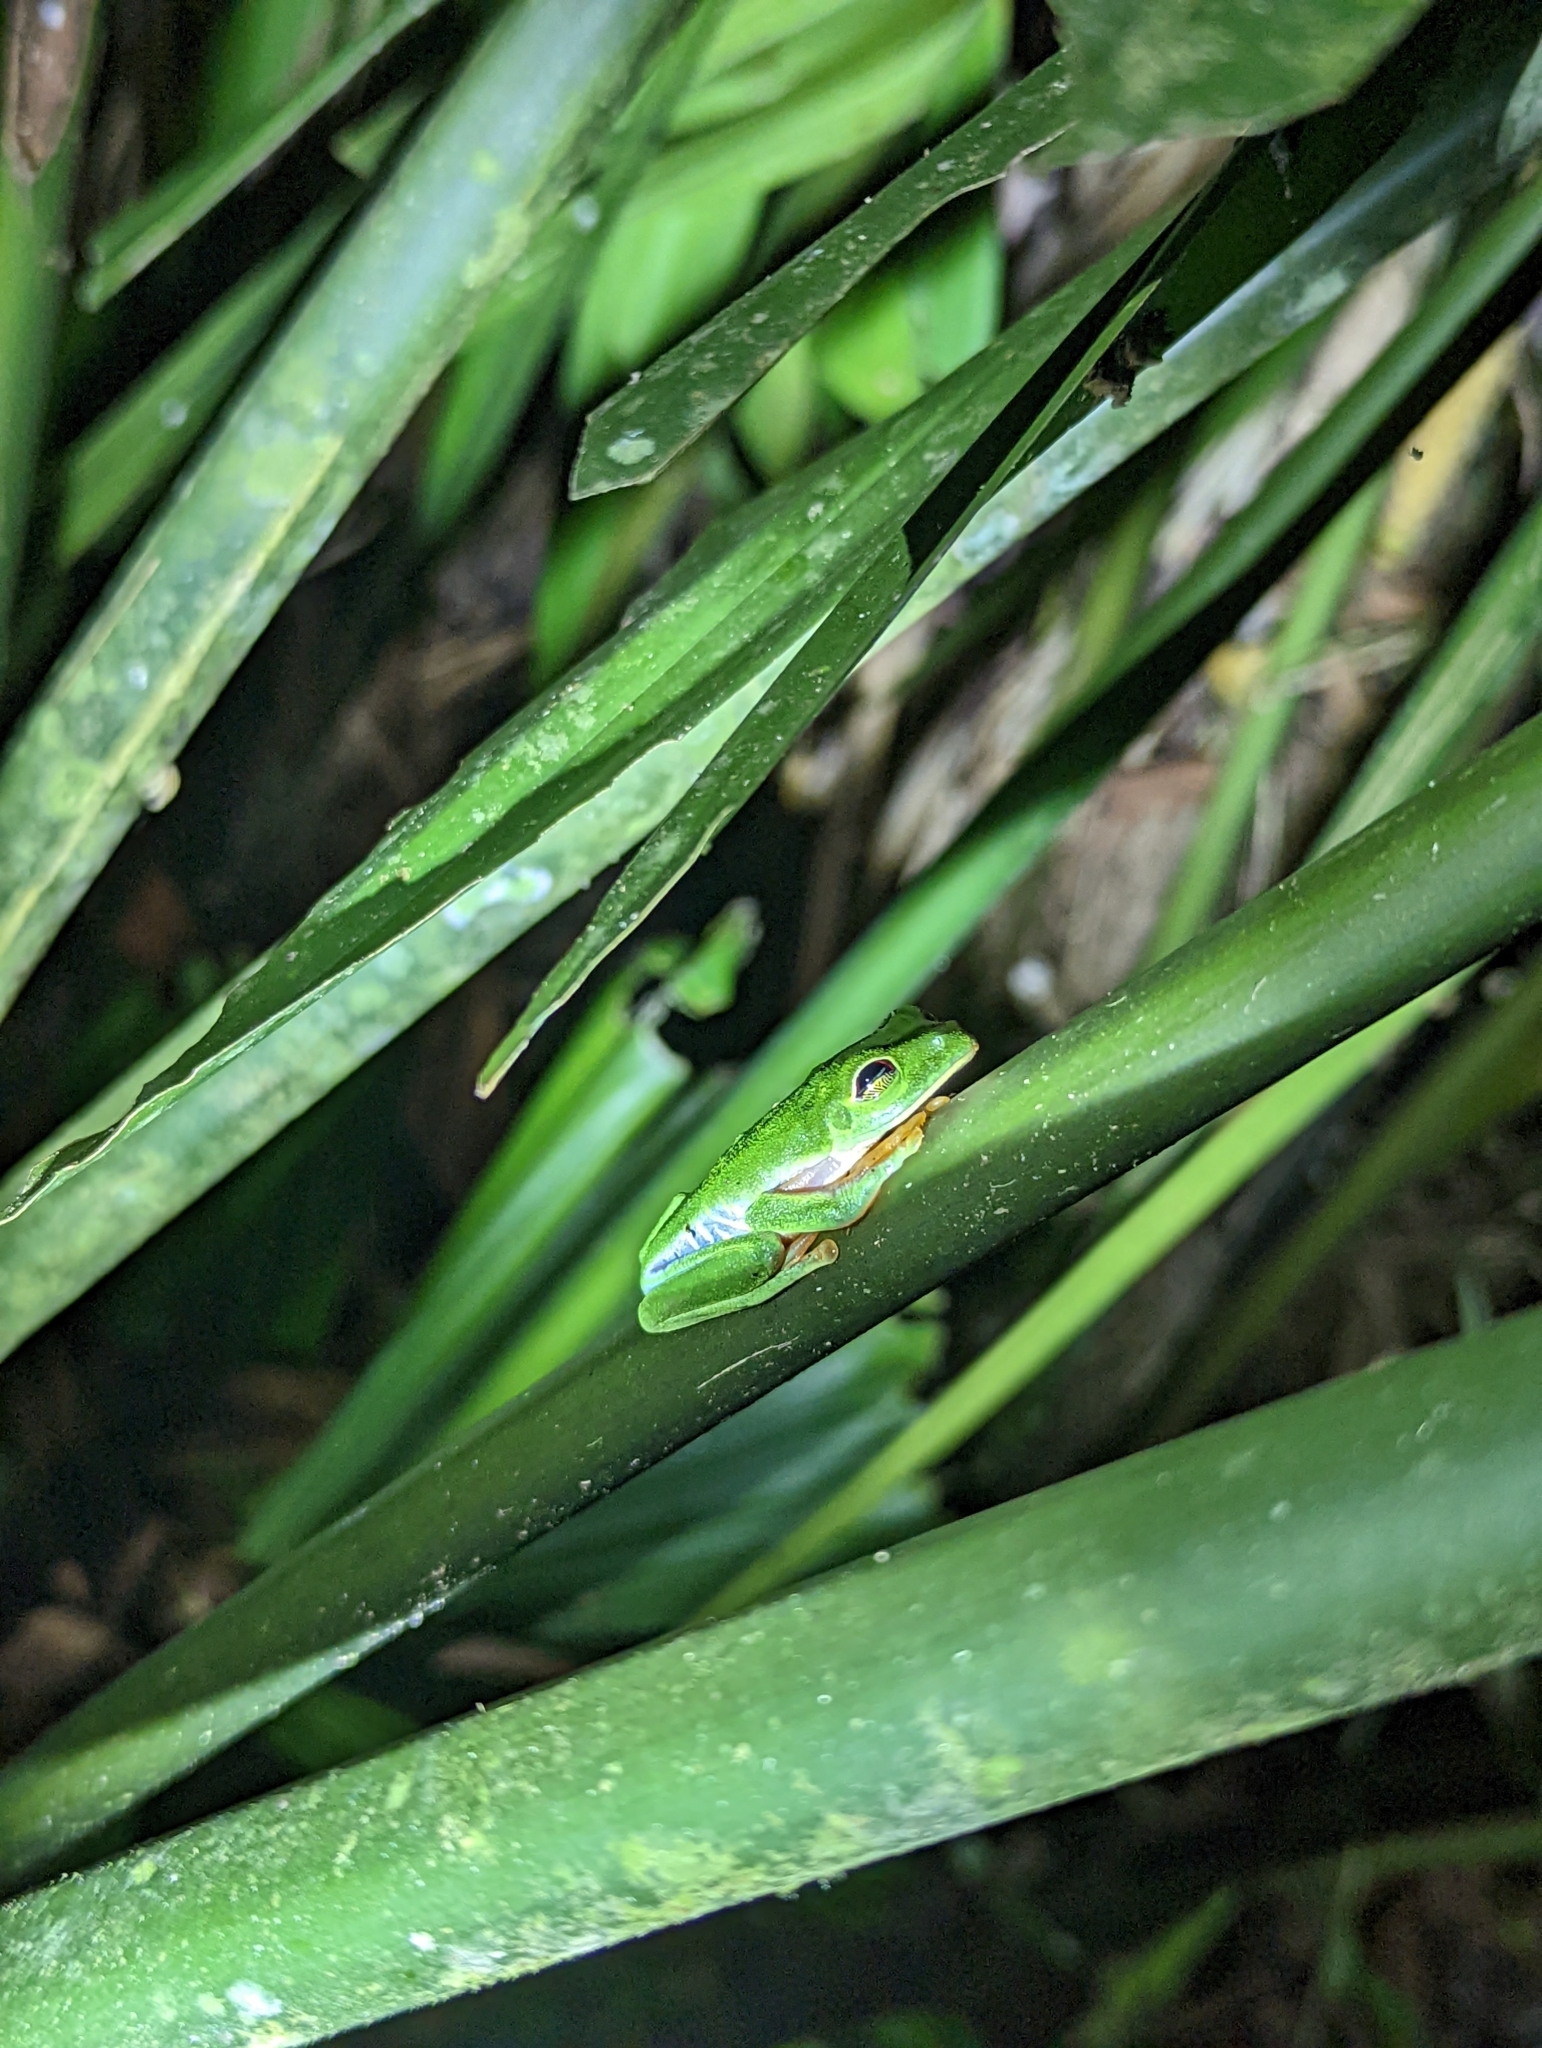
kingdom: Animalia
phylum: Chordata
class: Amphibia
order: Anura
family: Phyllomedusidae
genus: Agalychnis
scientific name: Agalychnis callidryas
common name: Red-eyed treefrog
